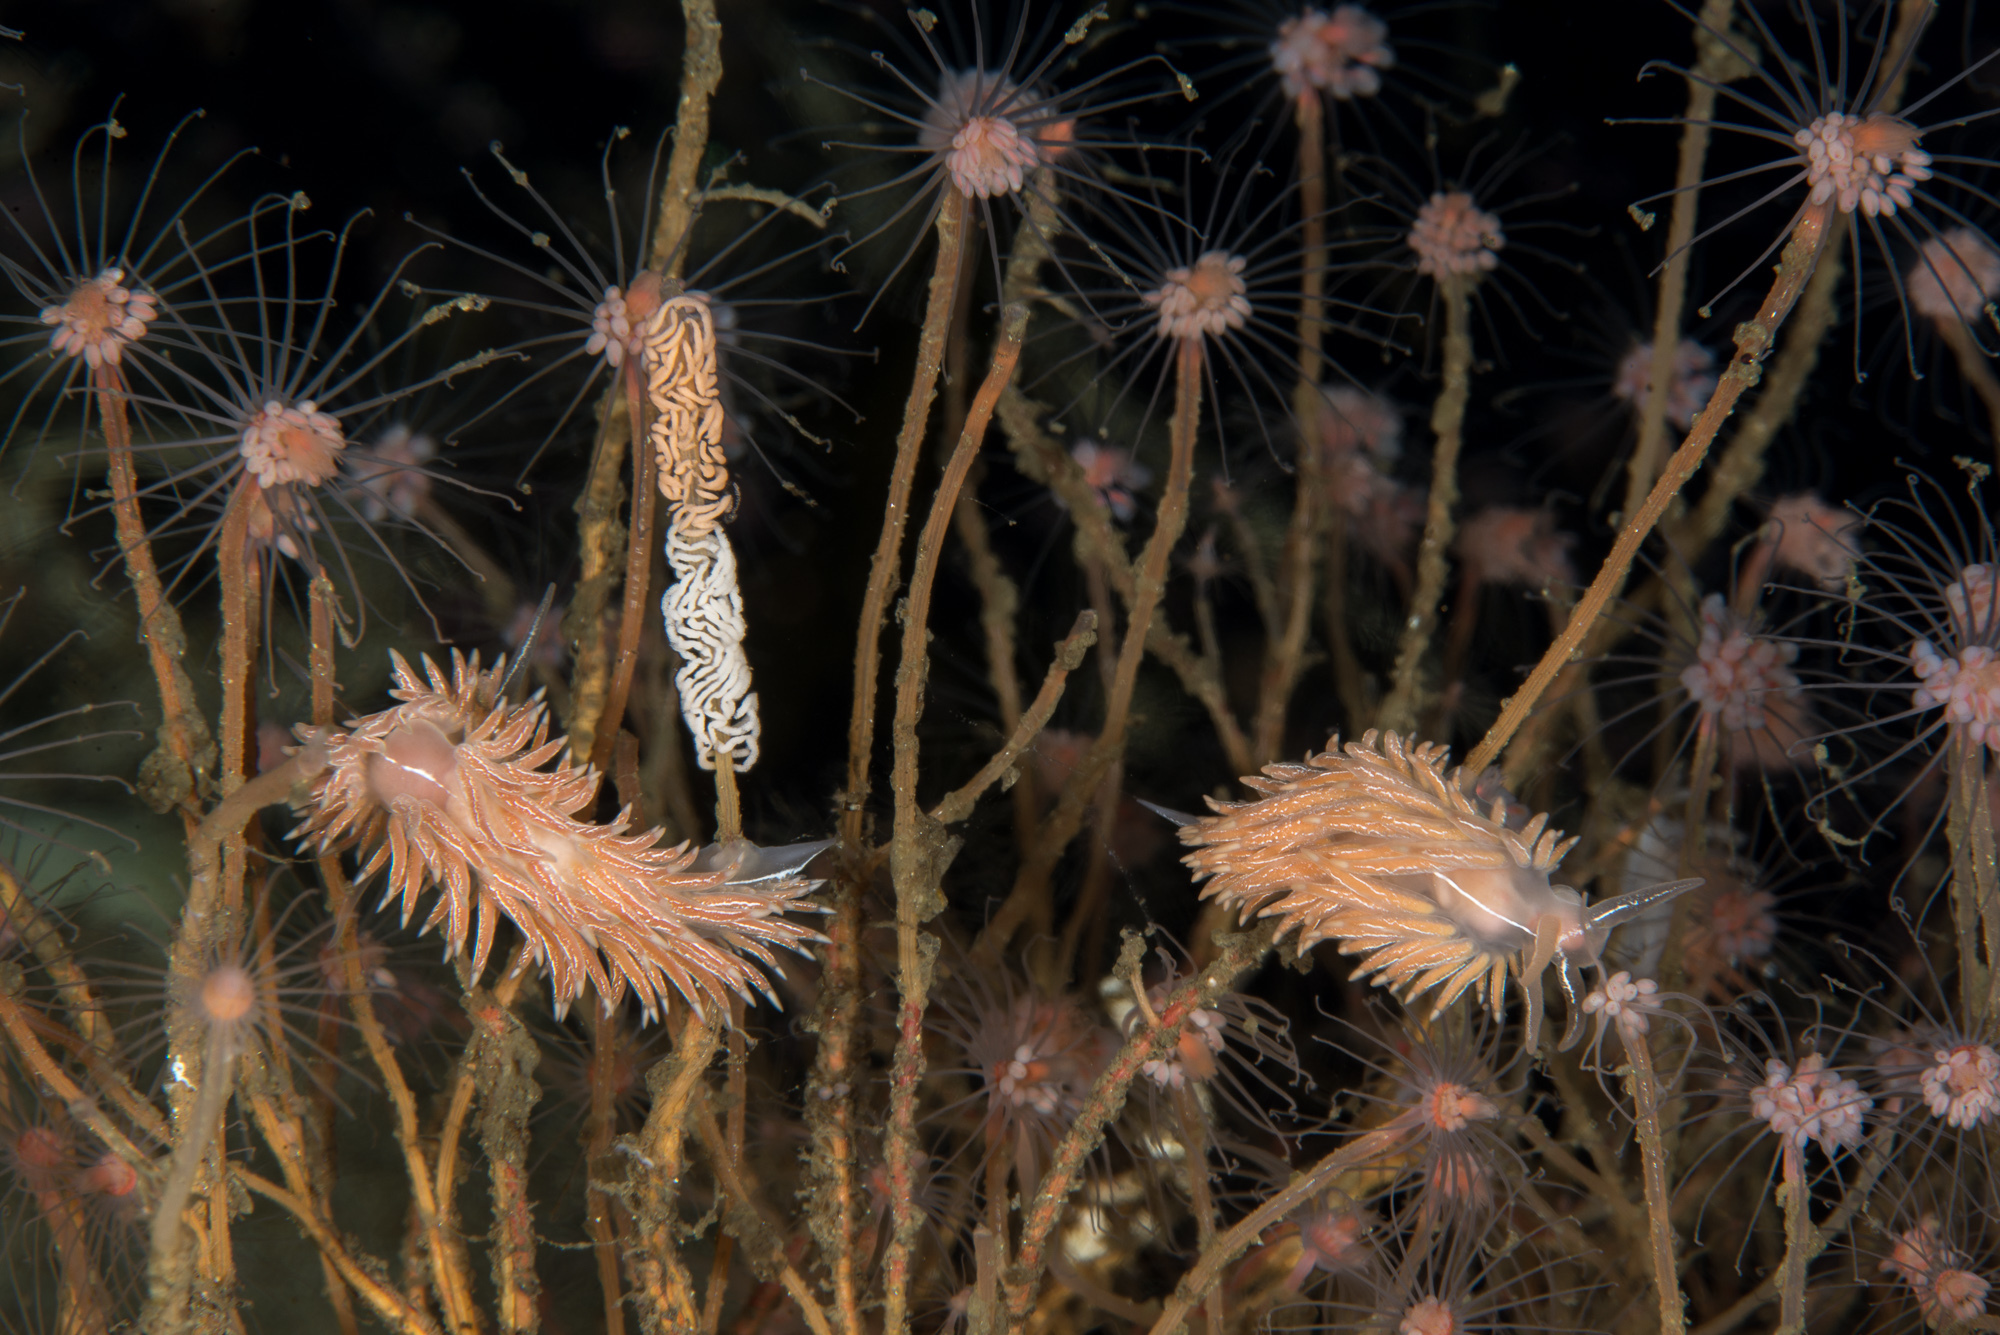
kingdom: Animalia
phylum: Mollusca
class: Gastropoda
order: Nudibranchia
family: Coryphellidae
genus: Coryphella
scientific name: Coryphella chriskaugei
